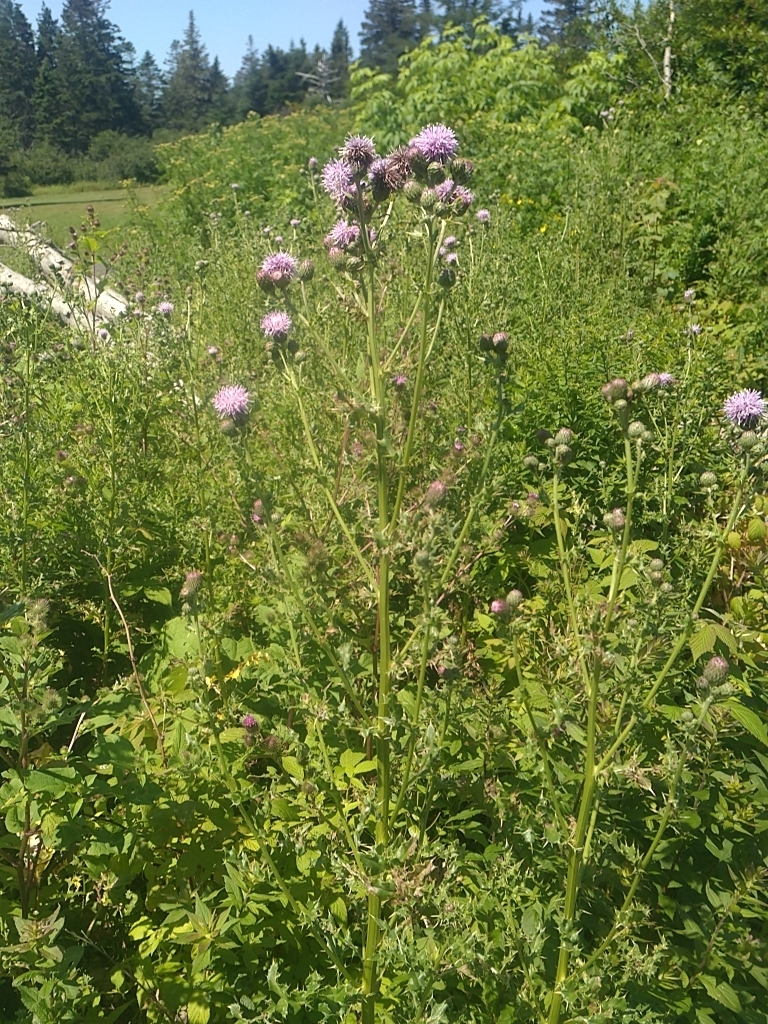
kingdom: Plantae
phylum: Tracheophyta
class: Magnoliopsida
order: Asterales
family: Asteraceae
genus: Cirsium
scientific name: Cirsium arvense
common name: Creeping thistle
